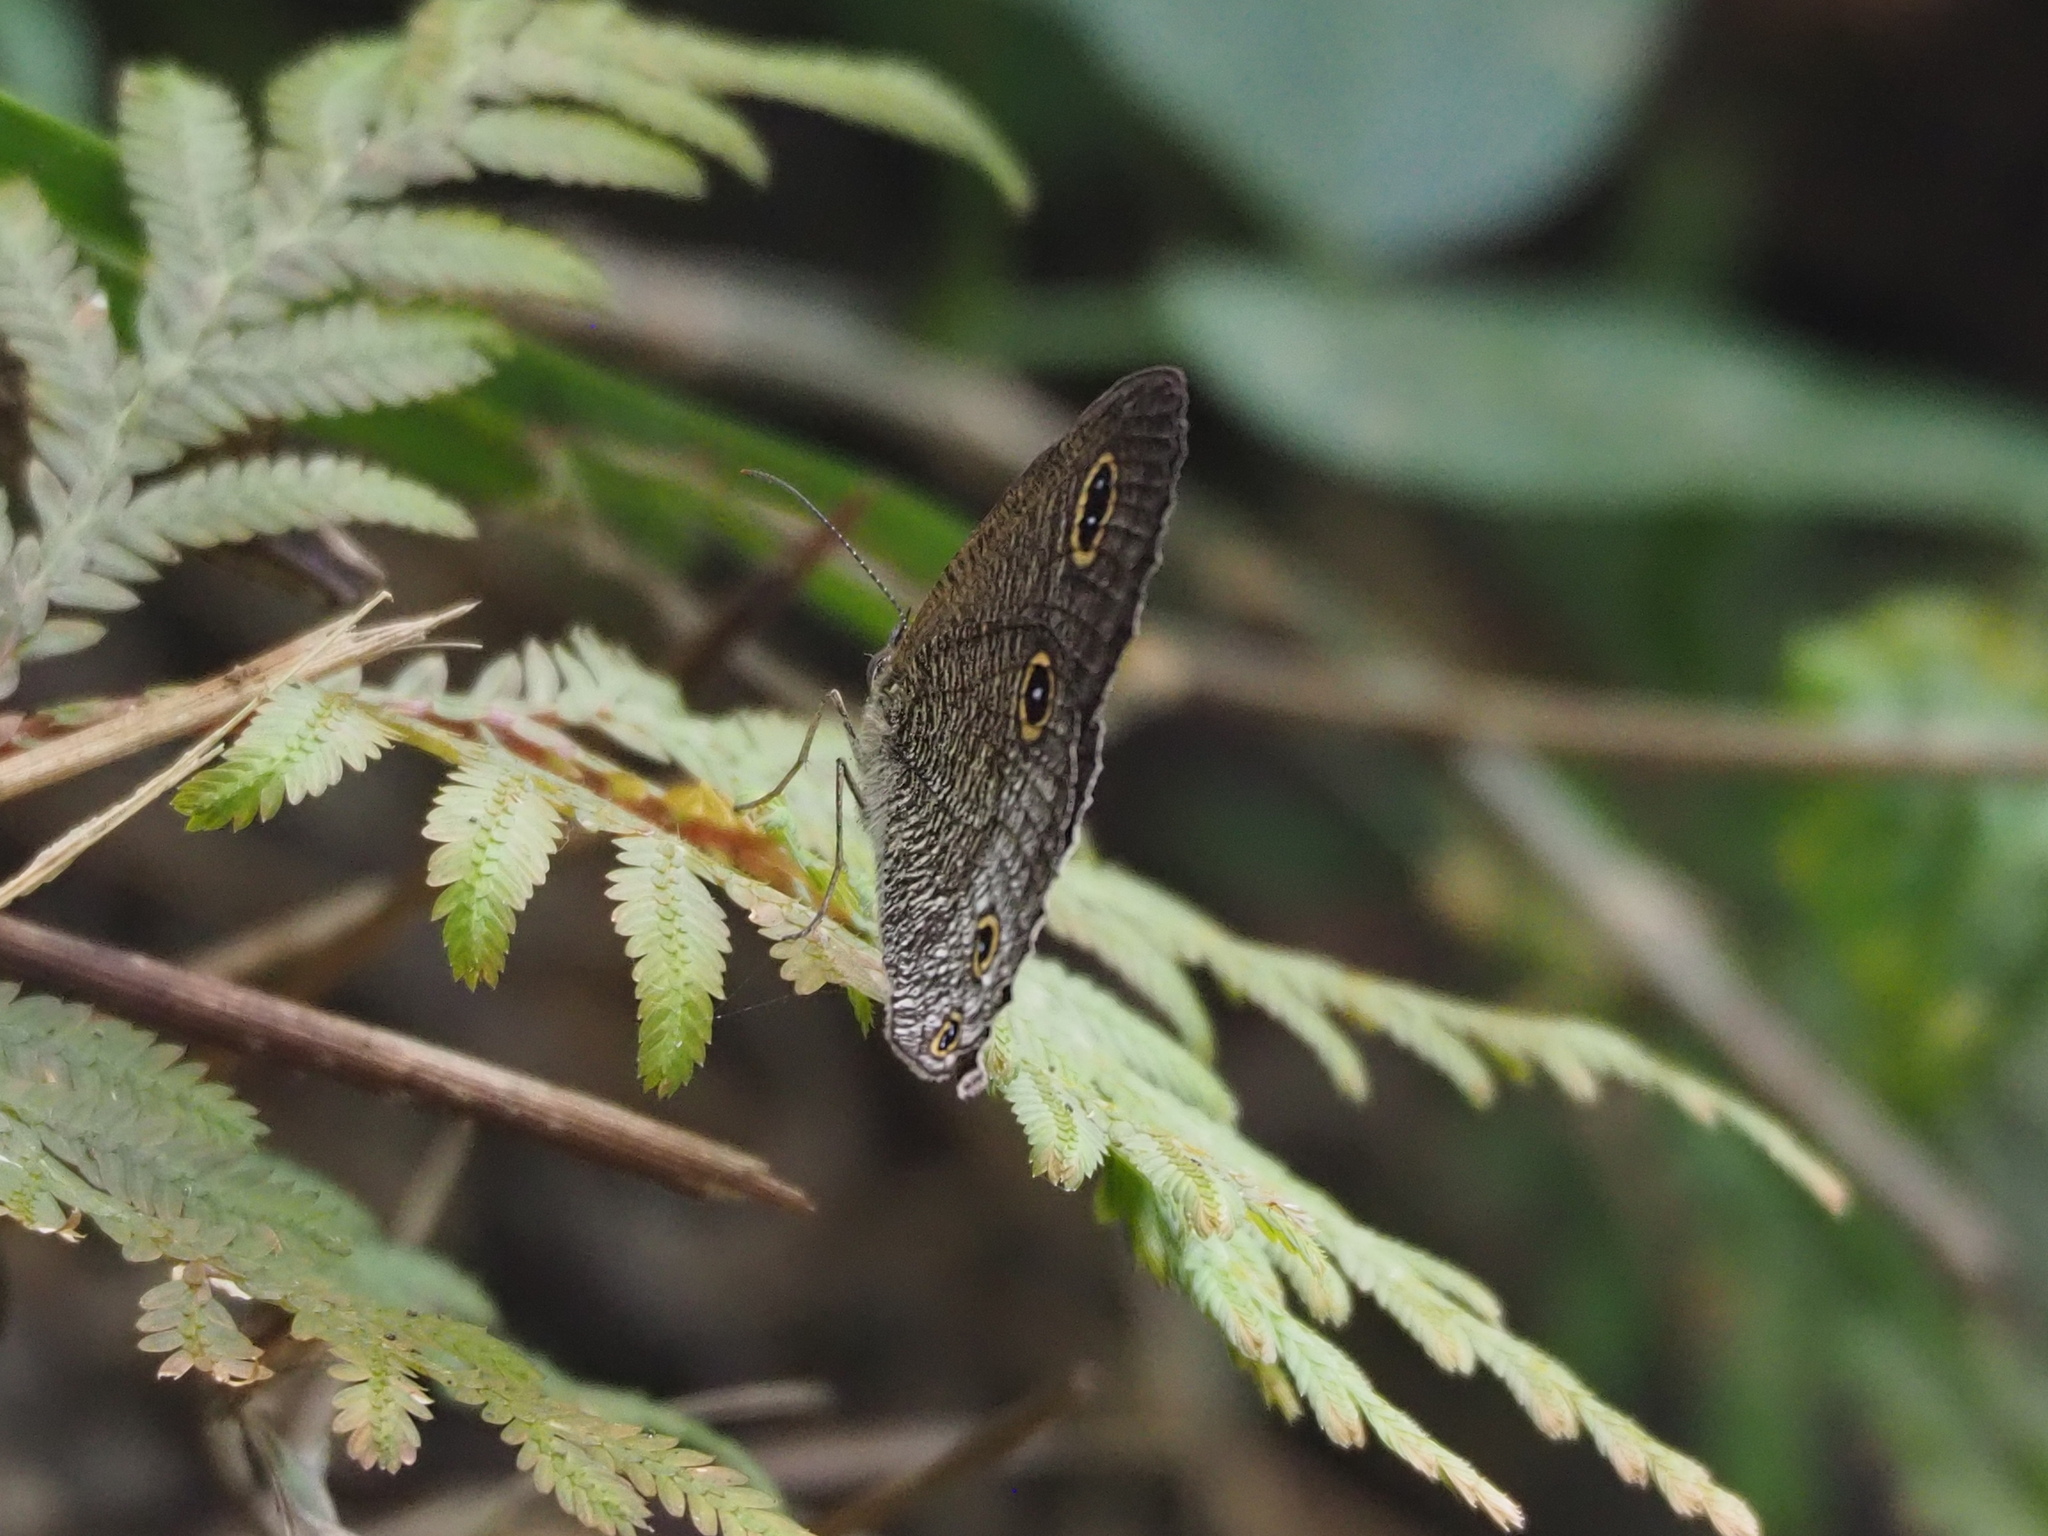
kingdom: Animalia
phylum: Arthropoda
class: Insecta
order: Lepidoptera
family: Nymphalidae
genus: Ypthima
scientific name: Ypthima multistriata
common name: Striated ringlet
